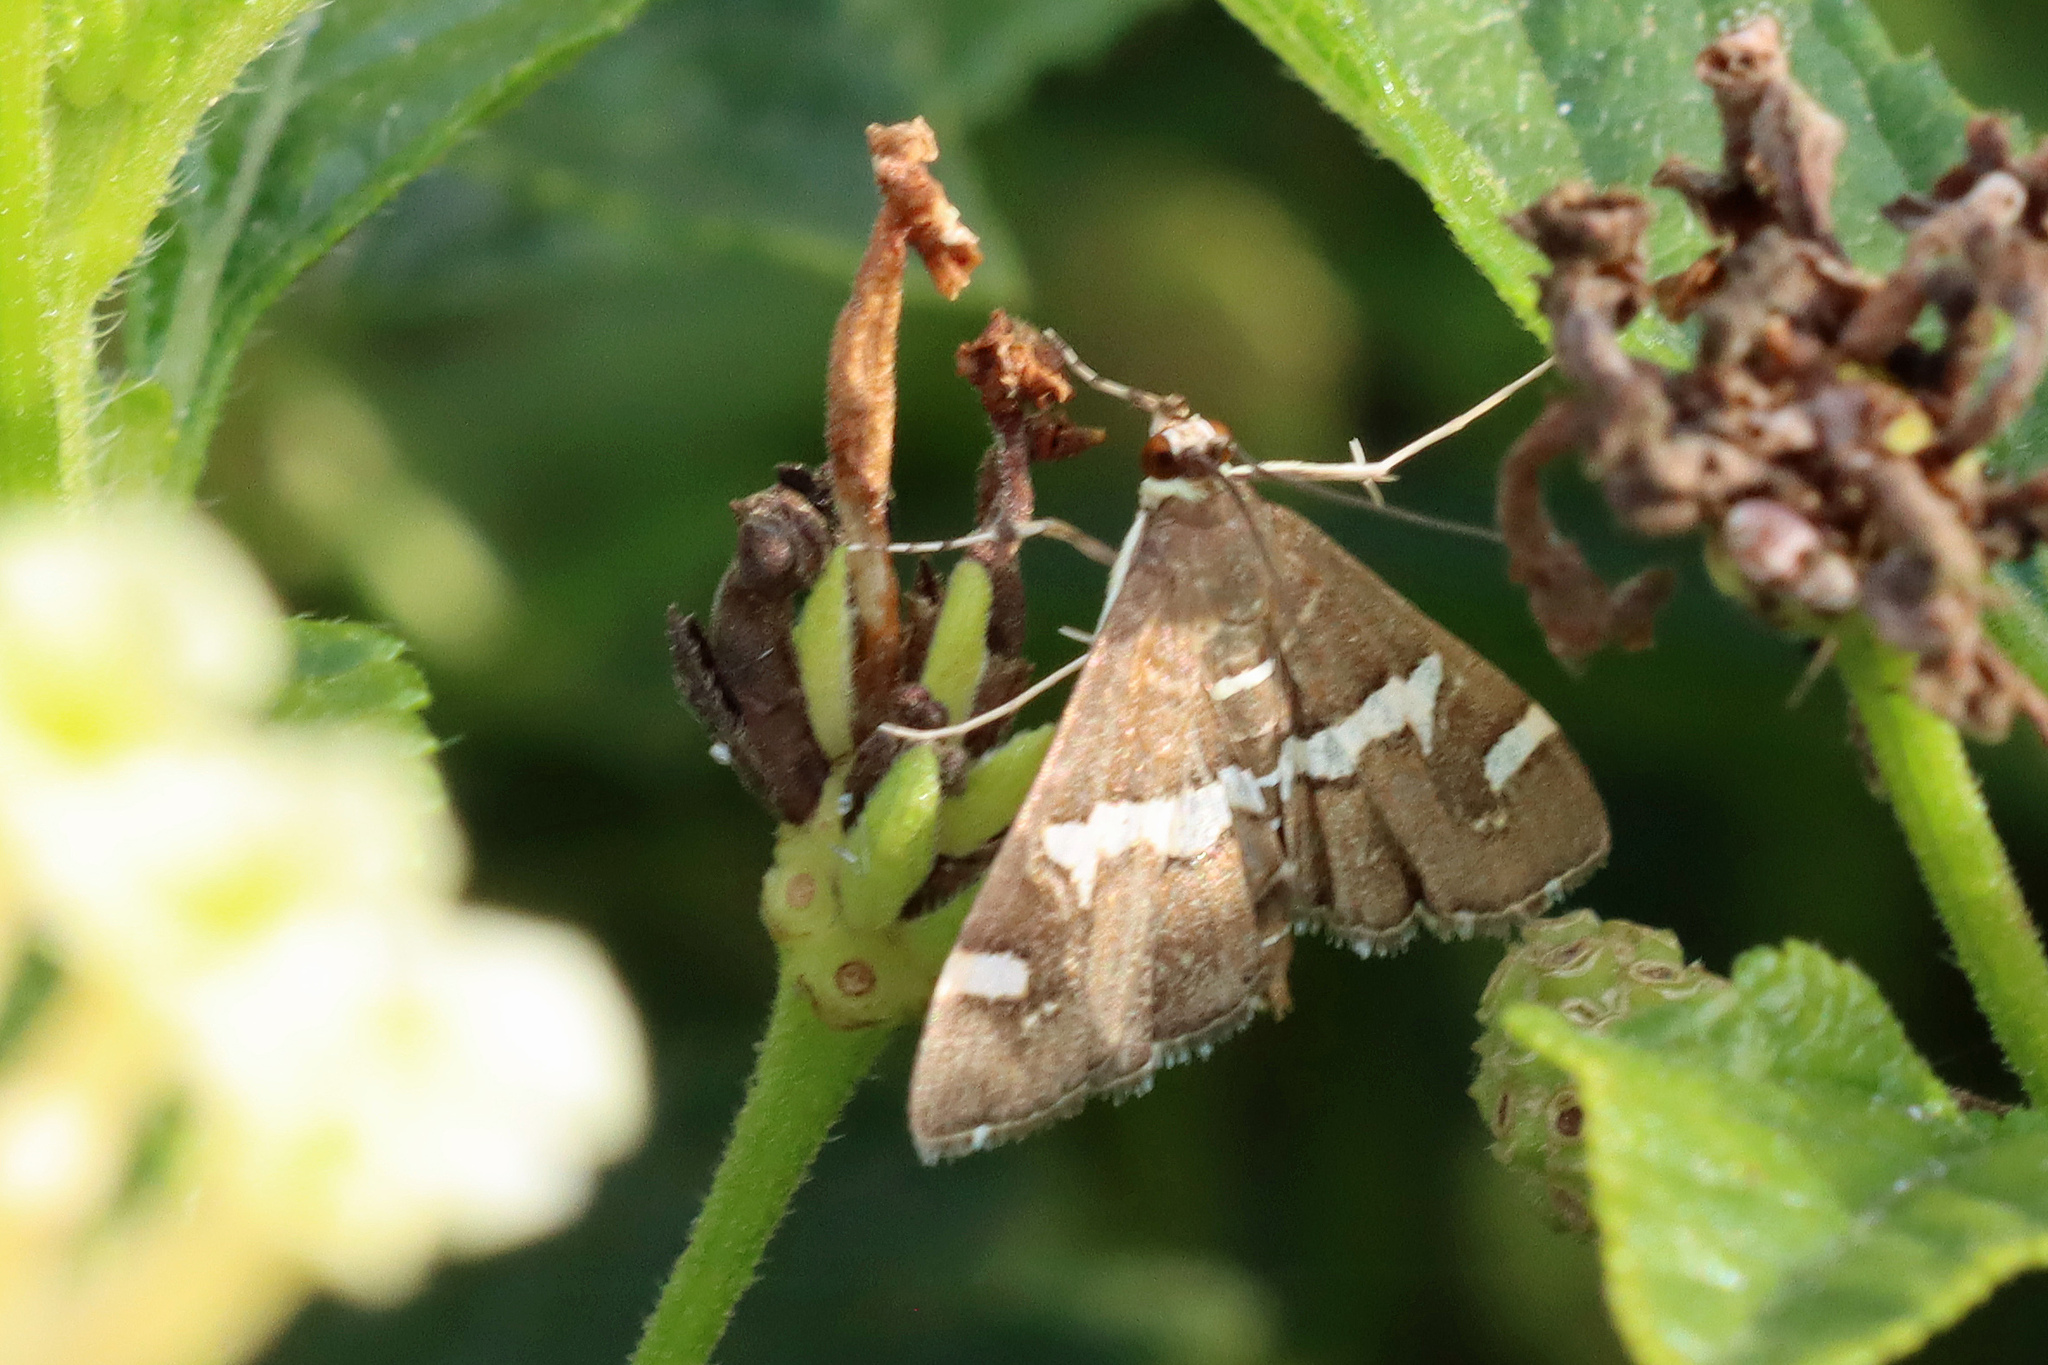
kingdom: Animalia
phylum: Arthropoda
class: Insecta
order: Lepidoptera
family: Crambidae
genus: Spoladea
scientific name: Spoladea recurvalis
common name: Beet webworm moth
